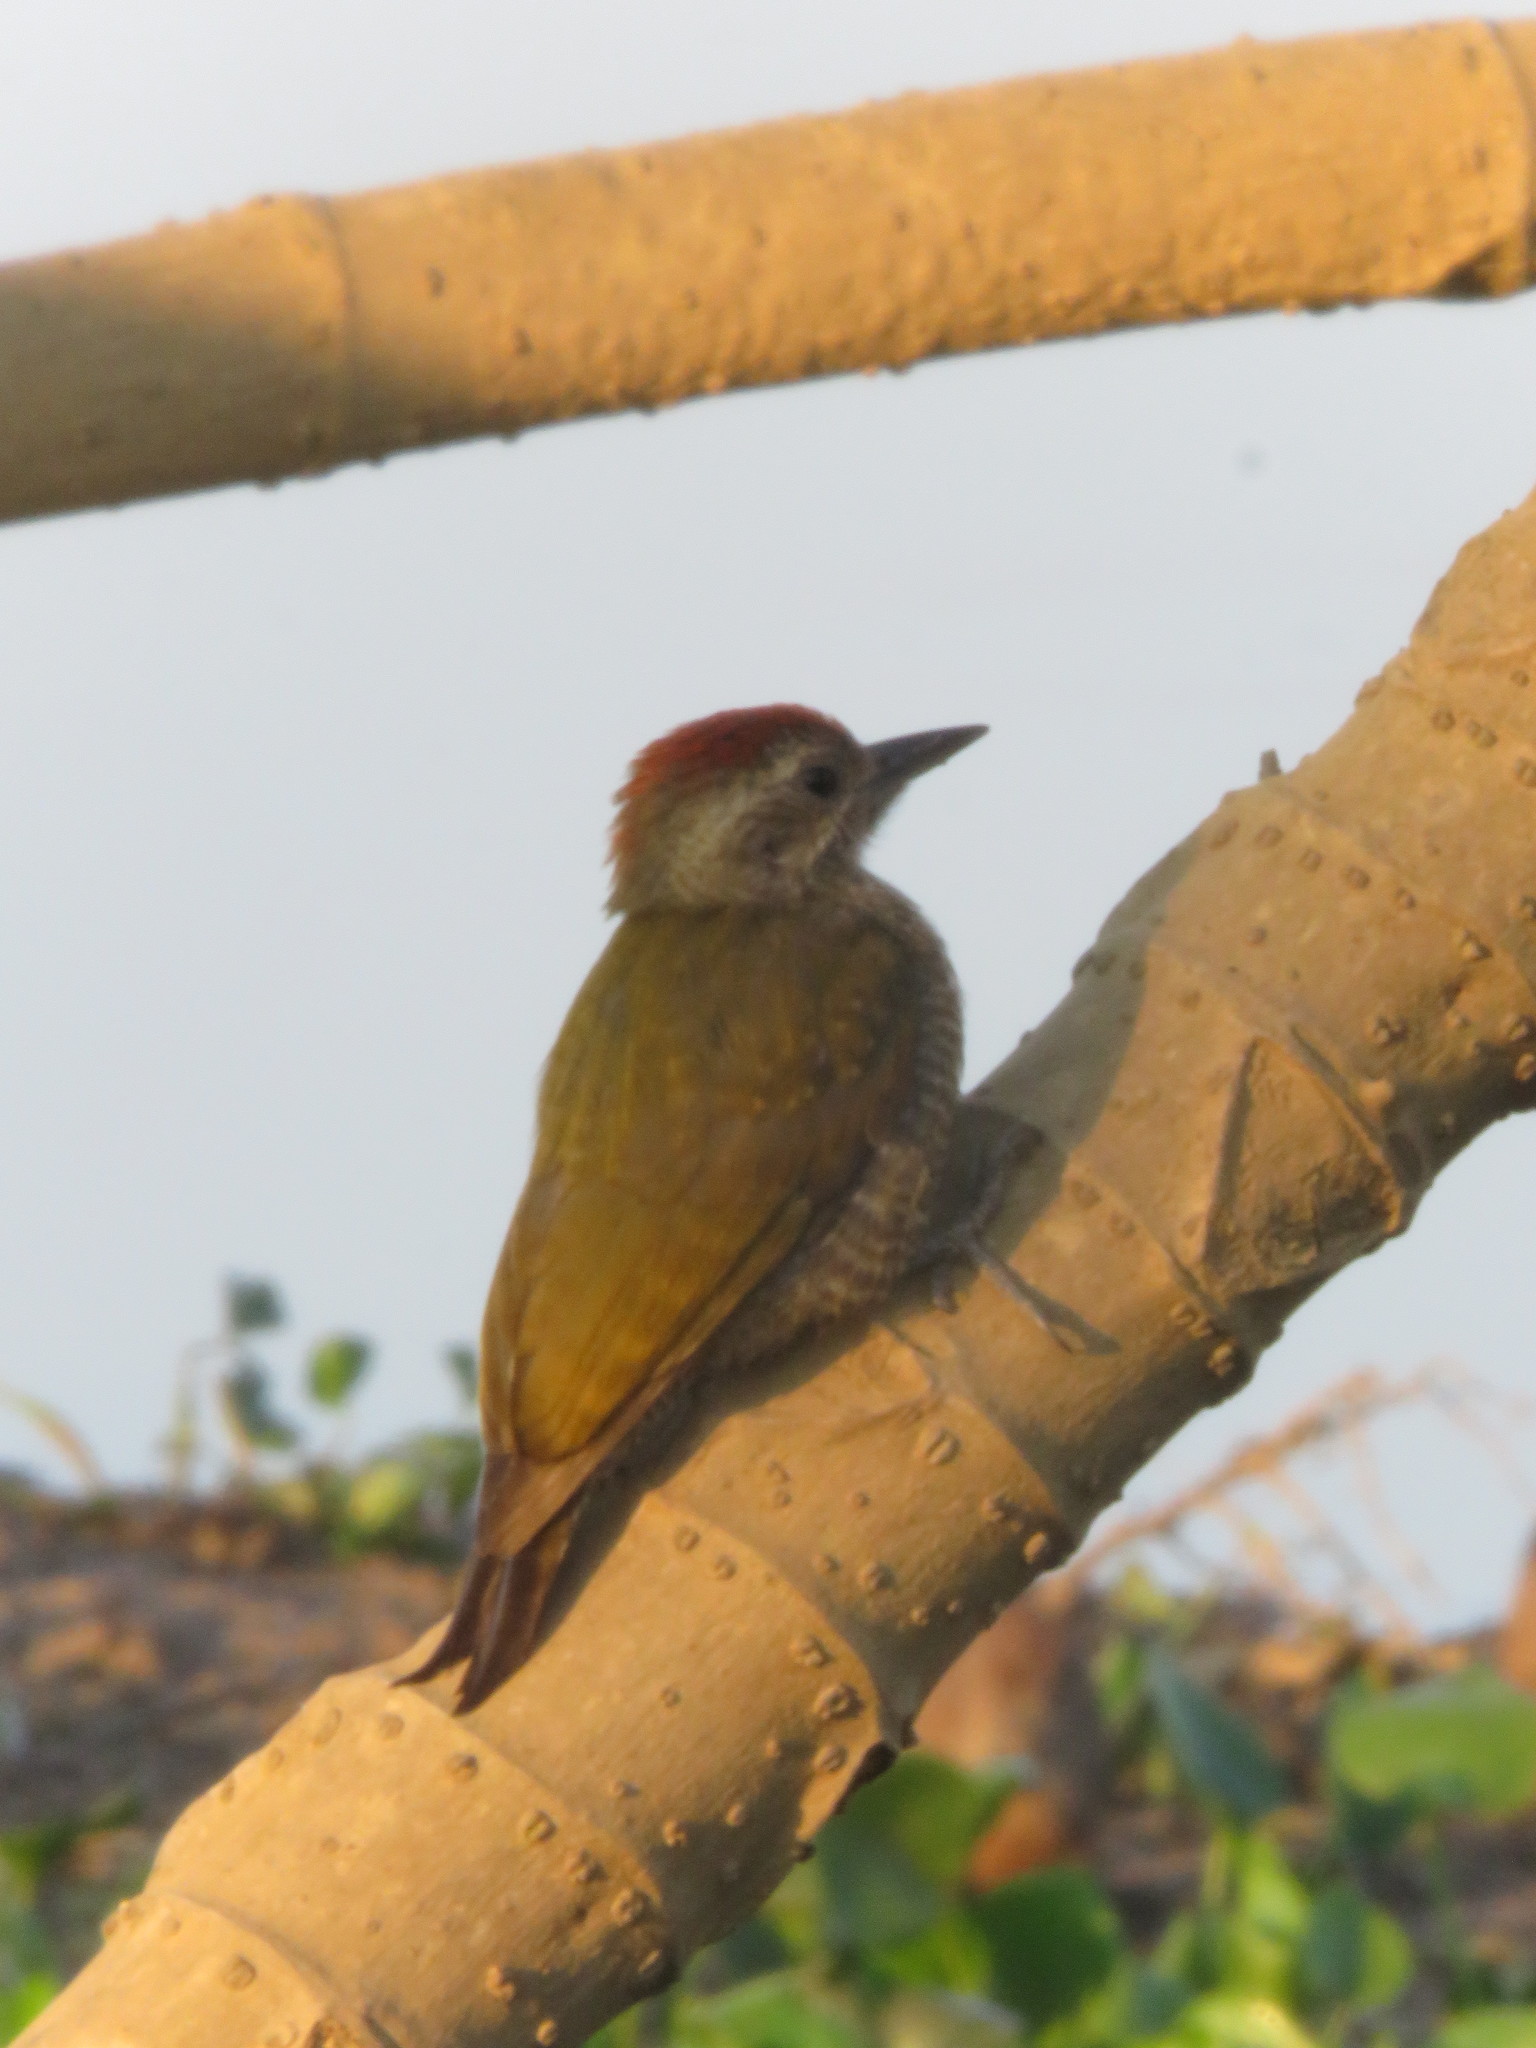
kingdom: Animalia
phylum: Chordata
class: Aves
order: Piciformes
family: Picidae
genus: Veniliornis
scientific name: Veniliornis passerinus
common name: Little woodpecker
